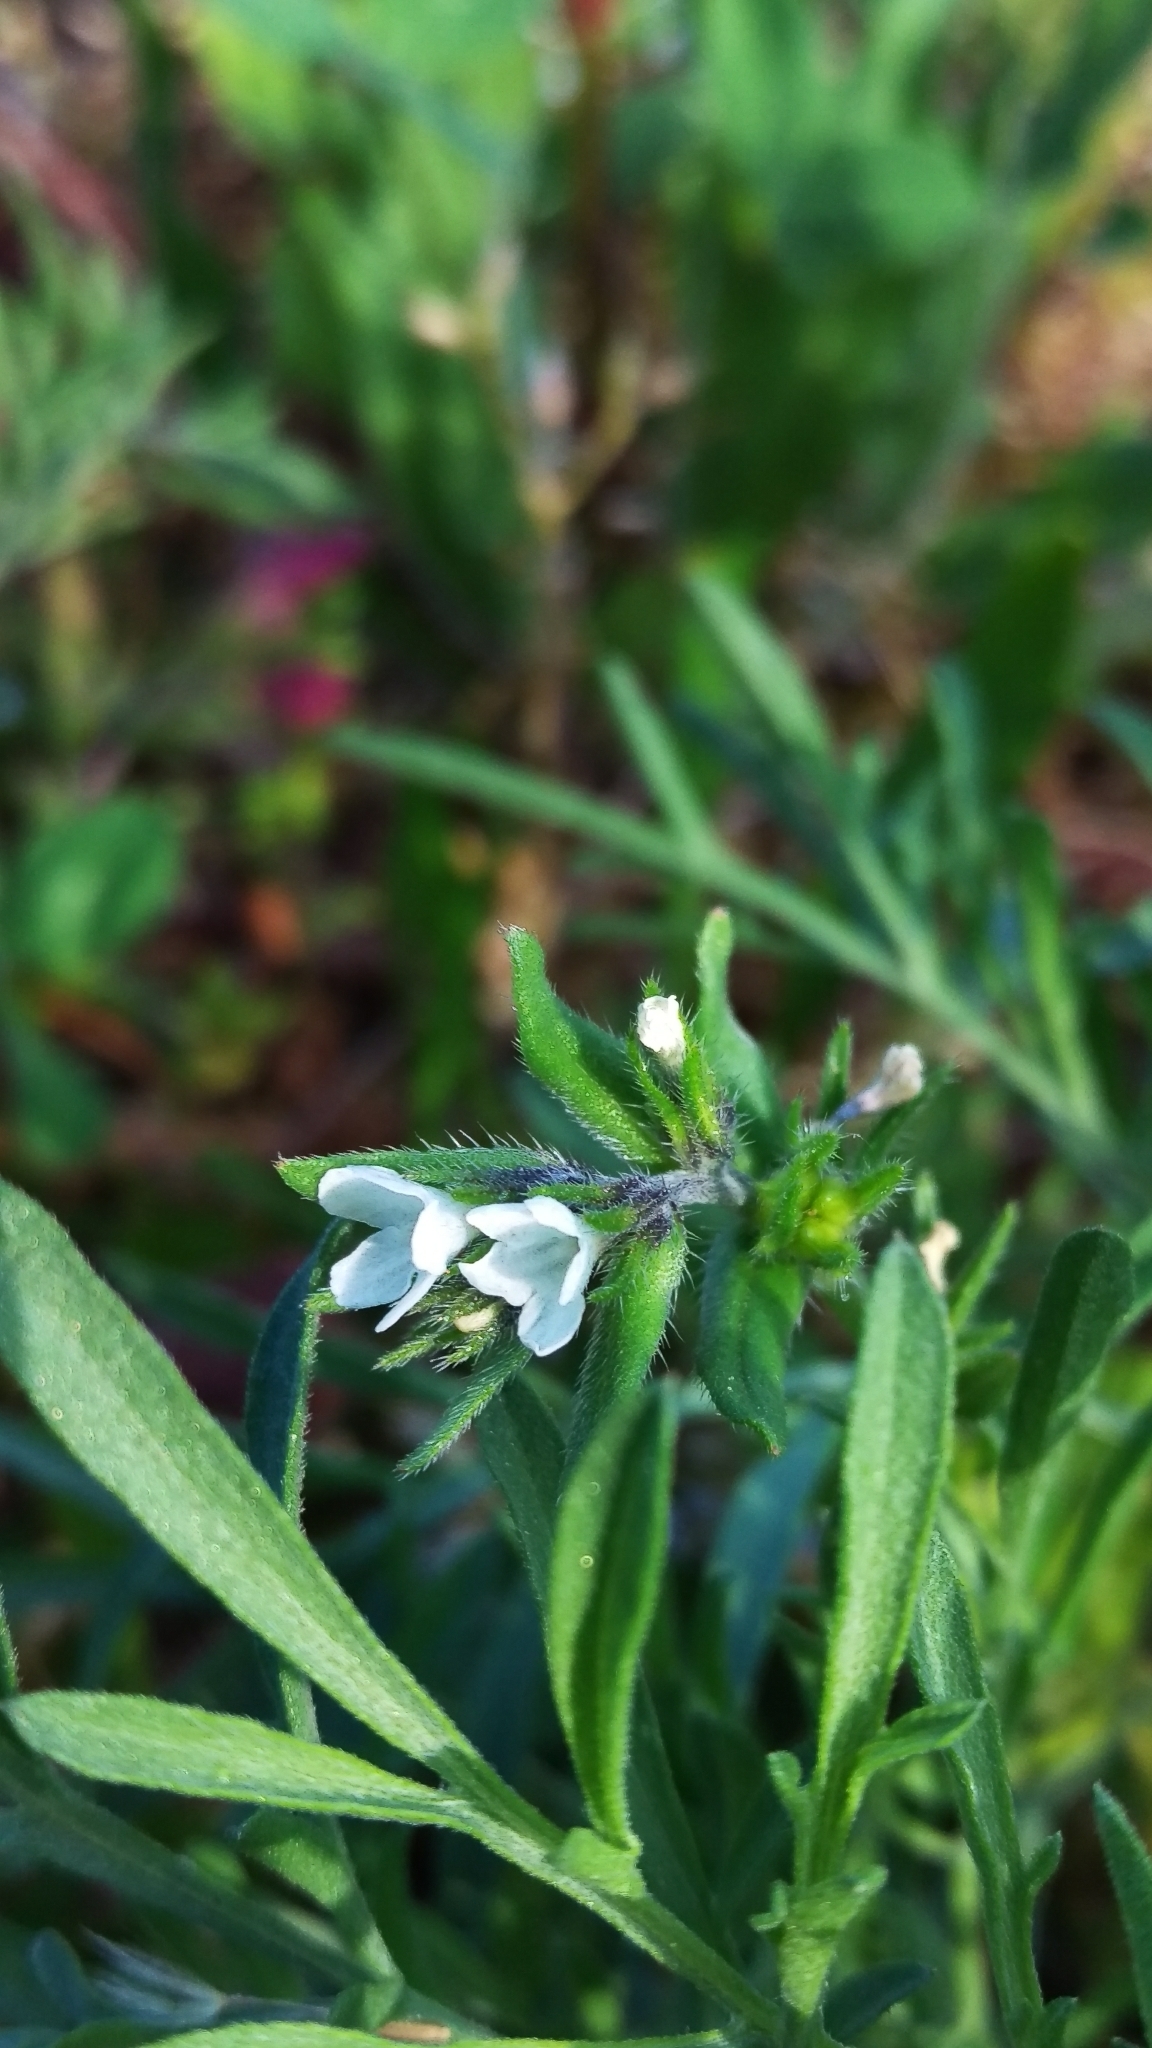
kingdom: Plantae
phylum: Tracheophyta
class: Magnoliopsida
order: Boraginales
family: Boraginaceae
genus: Buglossoides
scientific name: Buglossoides arvensis
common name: Corn gromwell
